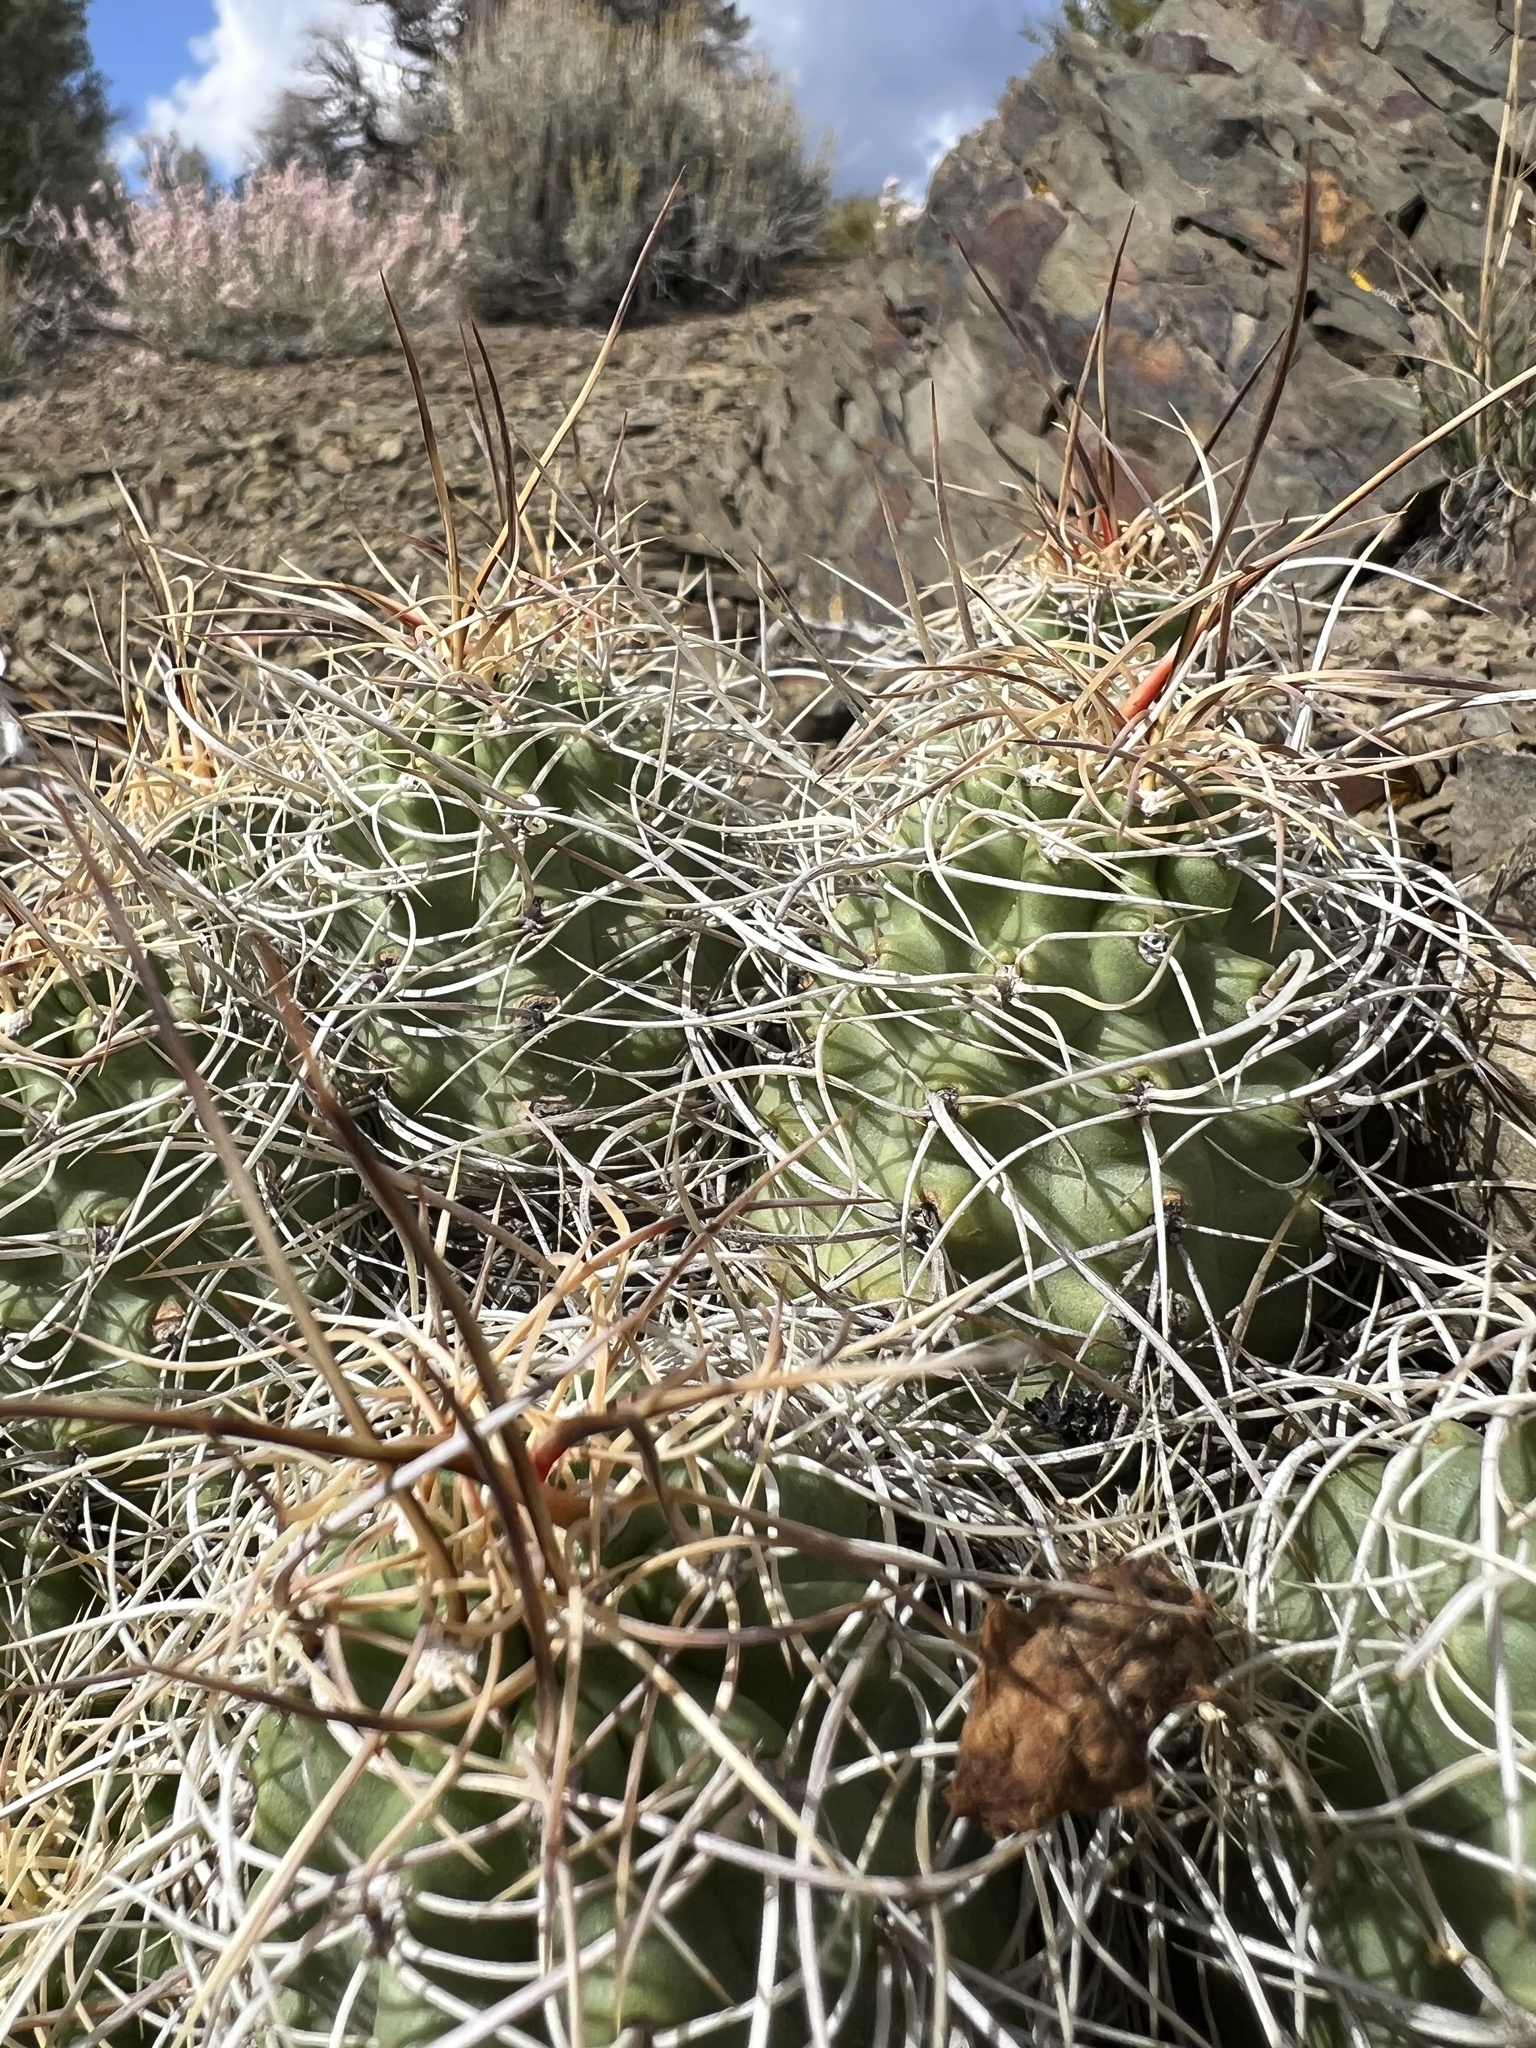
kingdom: Plantae
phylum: Tracheophyta
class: Magnoliopsida
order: Caryophyllales
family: Cactaceae
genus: Echinocereus
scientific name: Echinocereus triglochidiatus
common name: Claretcup hedgehog
